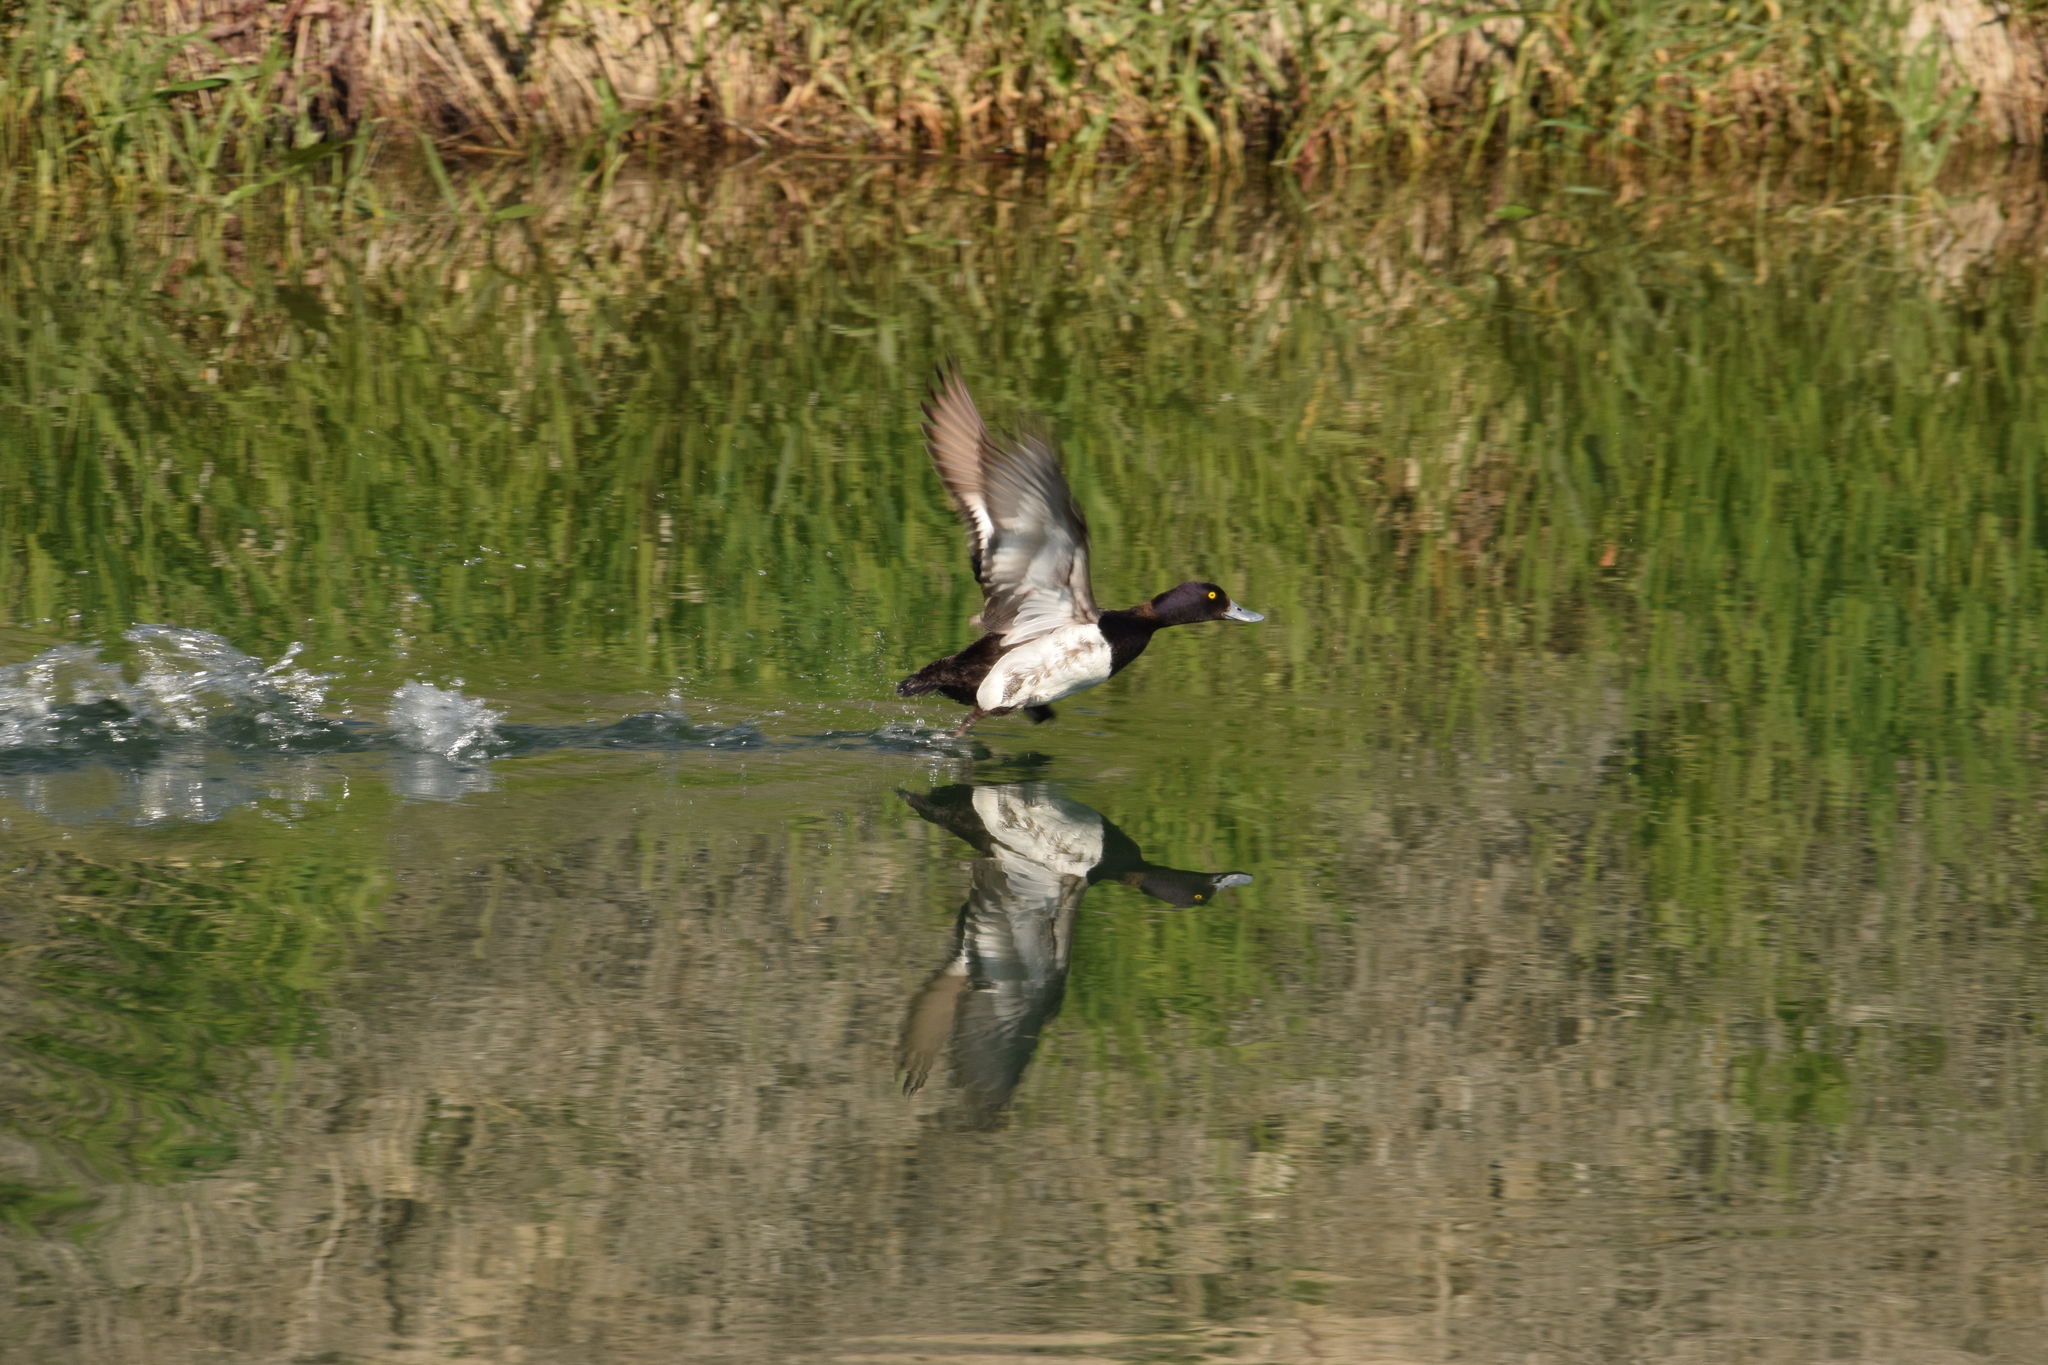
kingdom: Animalia
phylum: Chordata
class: Aves
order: Anseriformes
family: Anatidae
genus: Aythya
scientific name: Aythya affinis
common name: Lesser scaup
